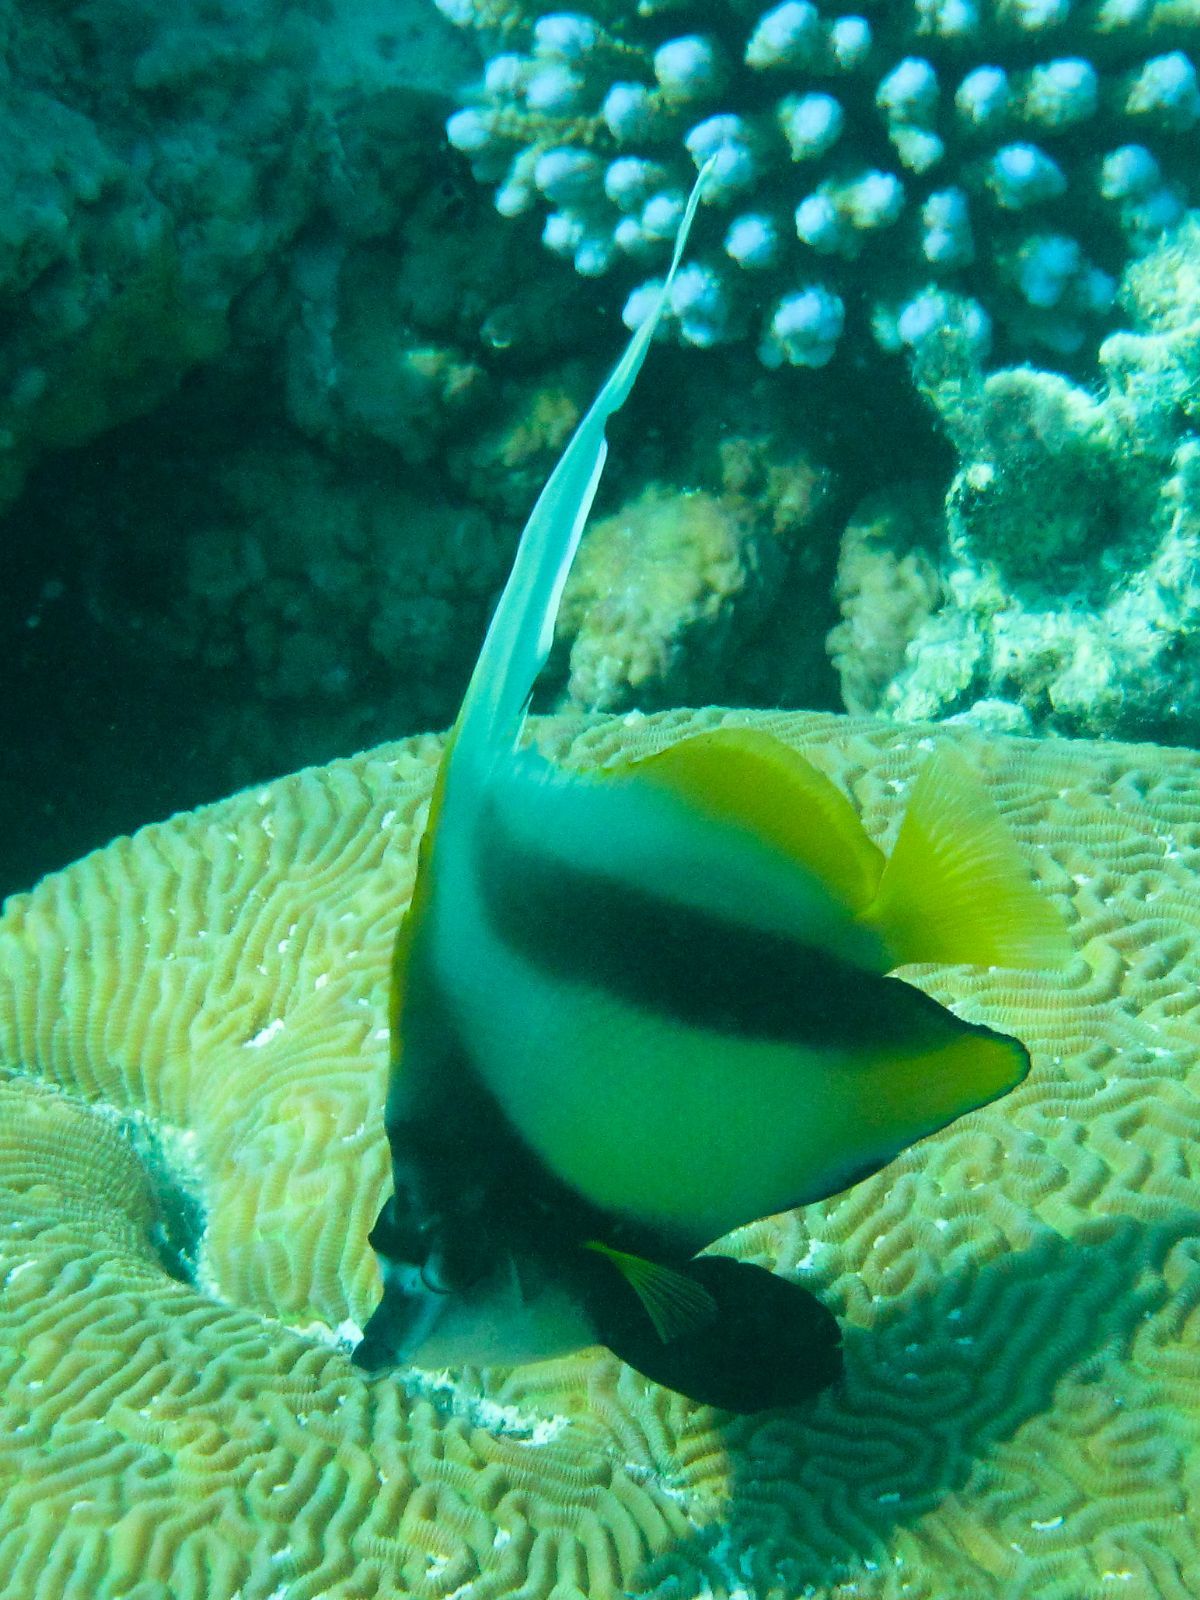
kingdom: Animalia
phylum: Chordata
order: Perciformes
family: Chaetodontidae
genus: Heniochus
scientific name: Heniochus intermedius
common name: Red sea bannerfish
